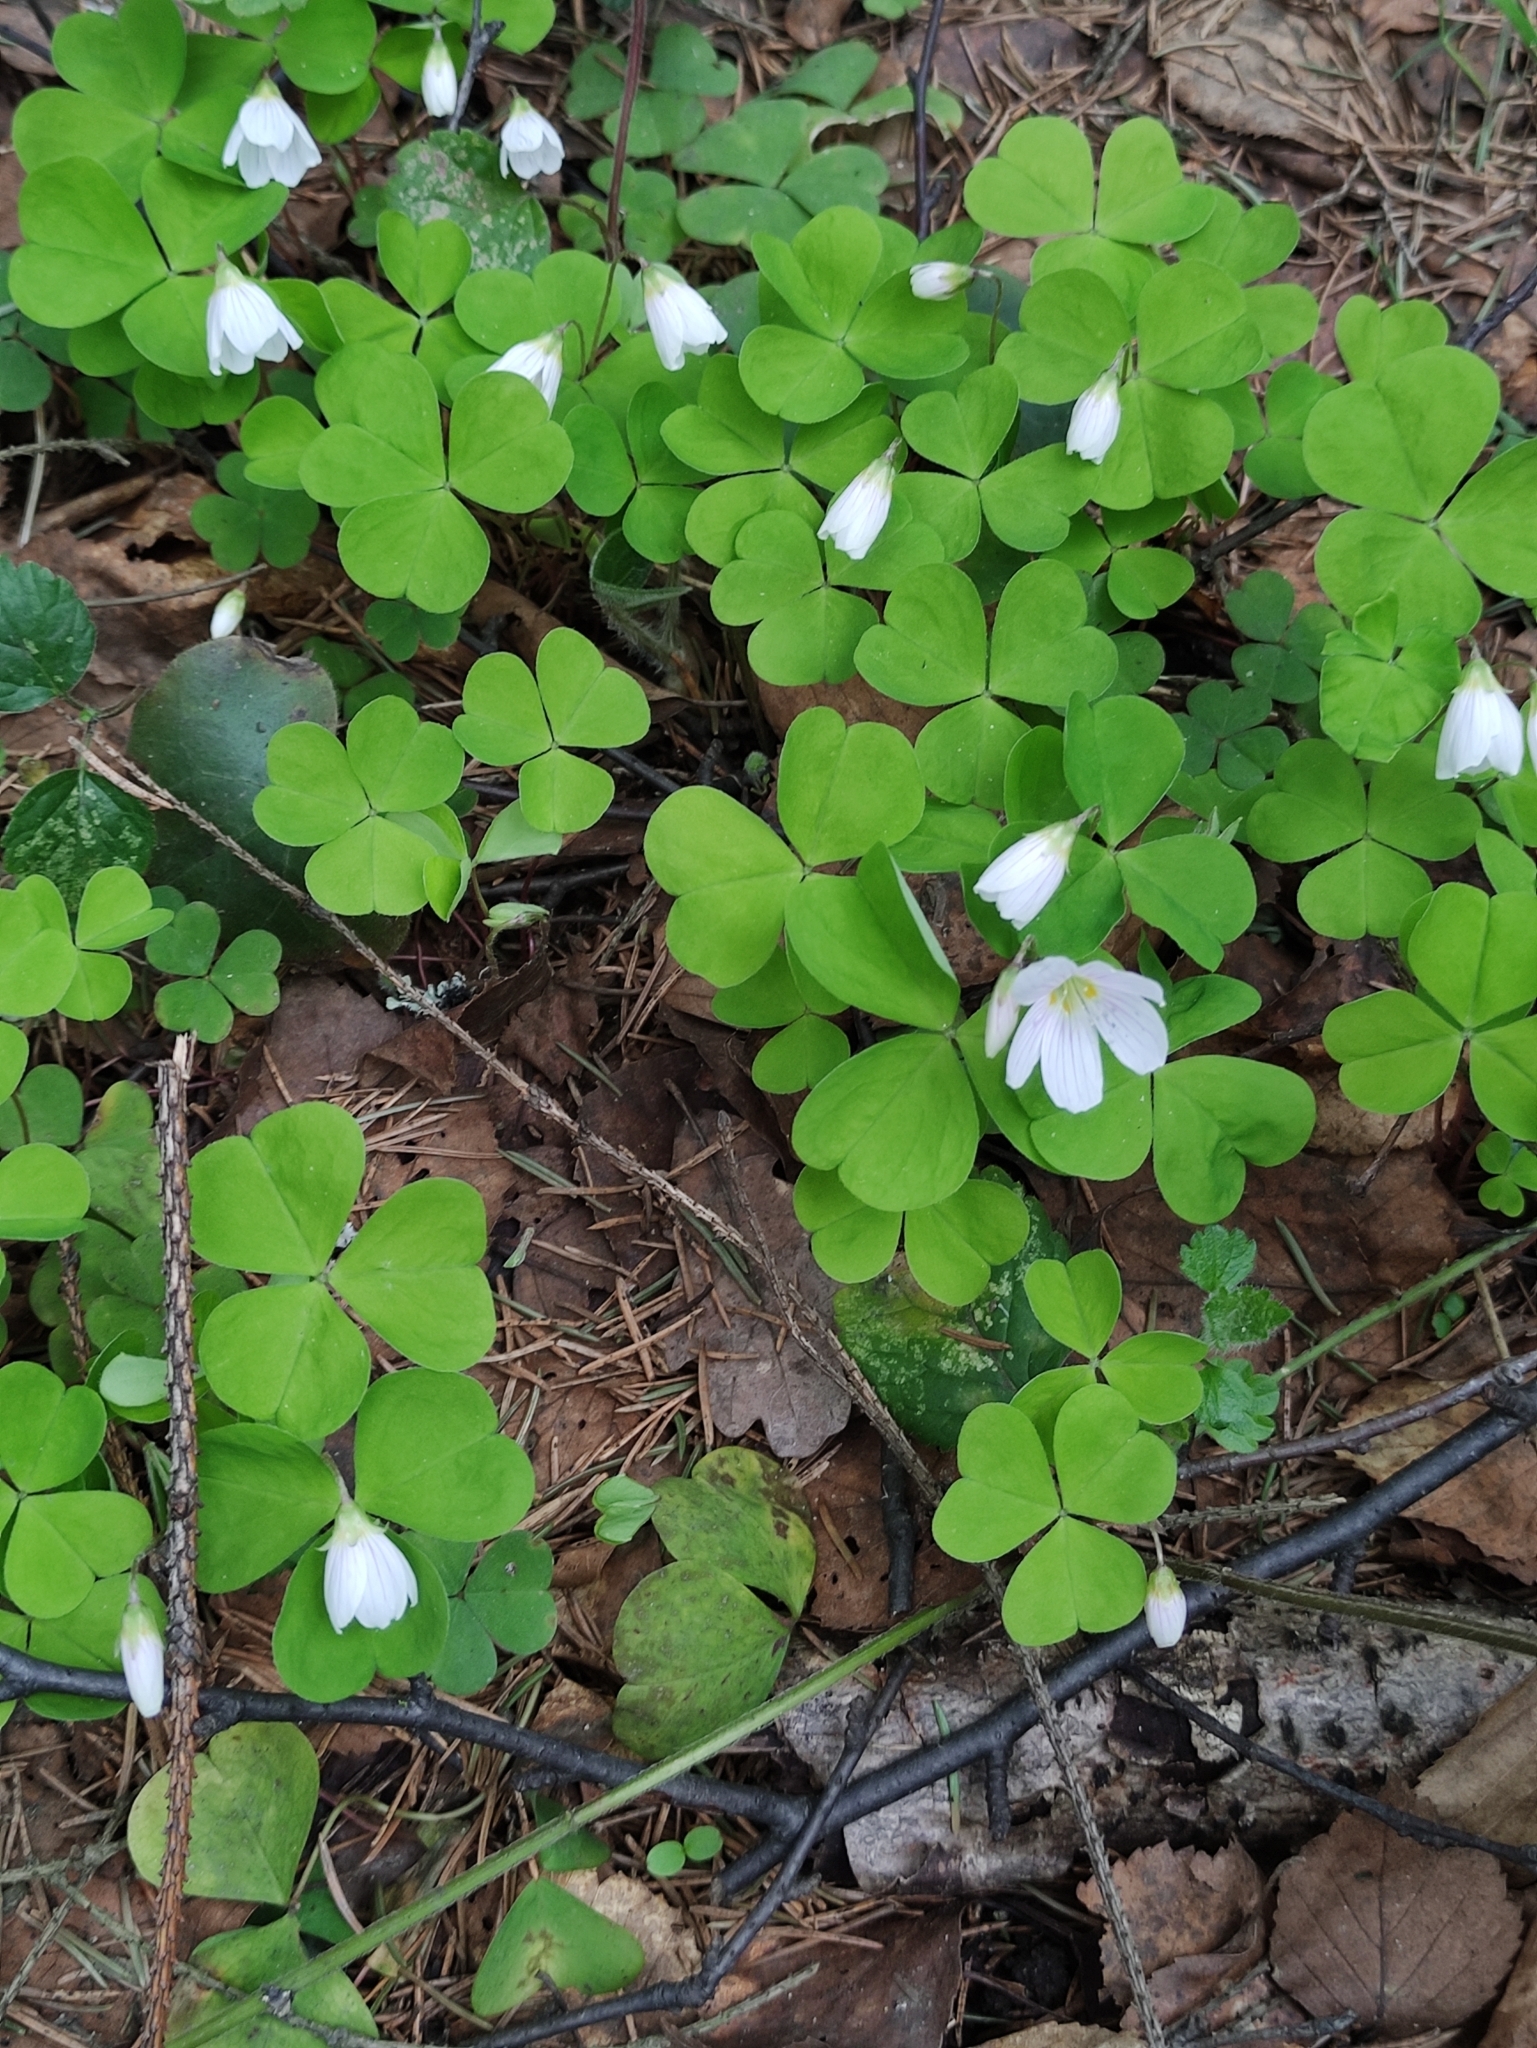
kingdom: Plantae
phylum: Tracheophyta
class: Magnoliopsida
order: Oxalidales
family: Oxalidaceae
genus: Oxalis
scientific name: Oxalis acetosella
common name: Wood-sorrel
